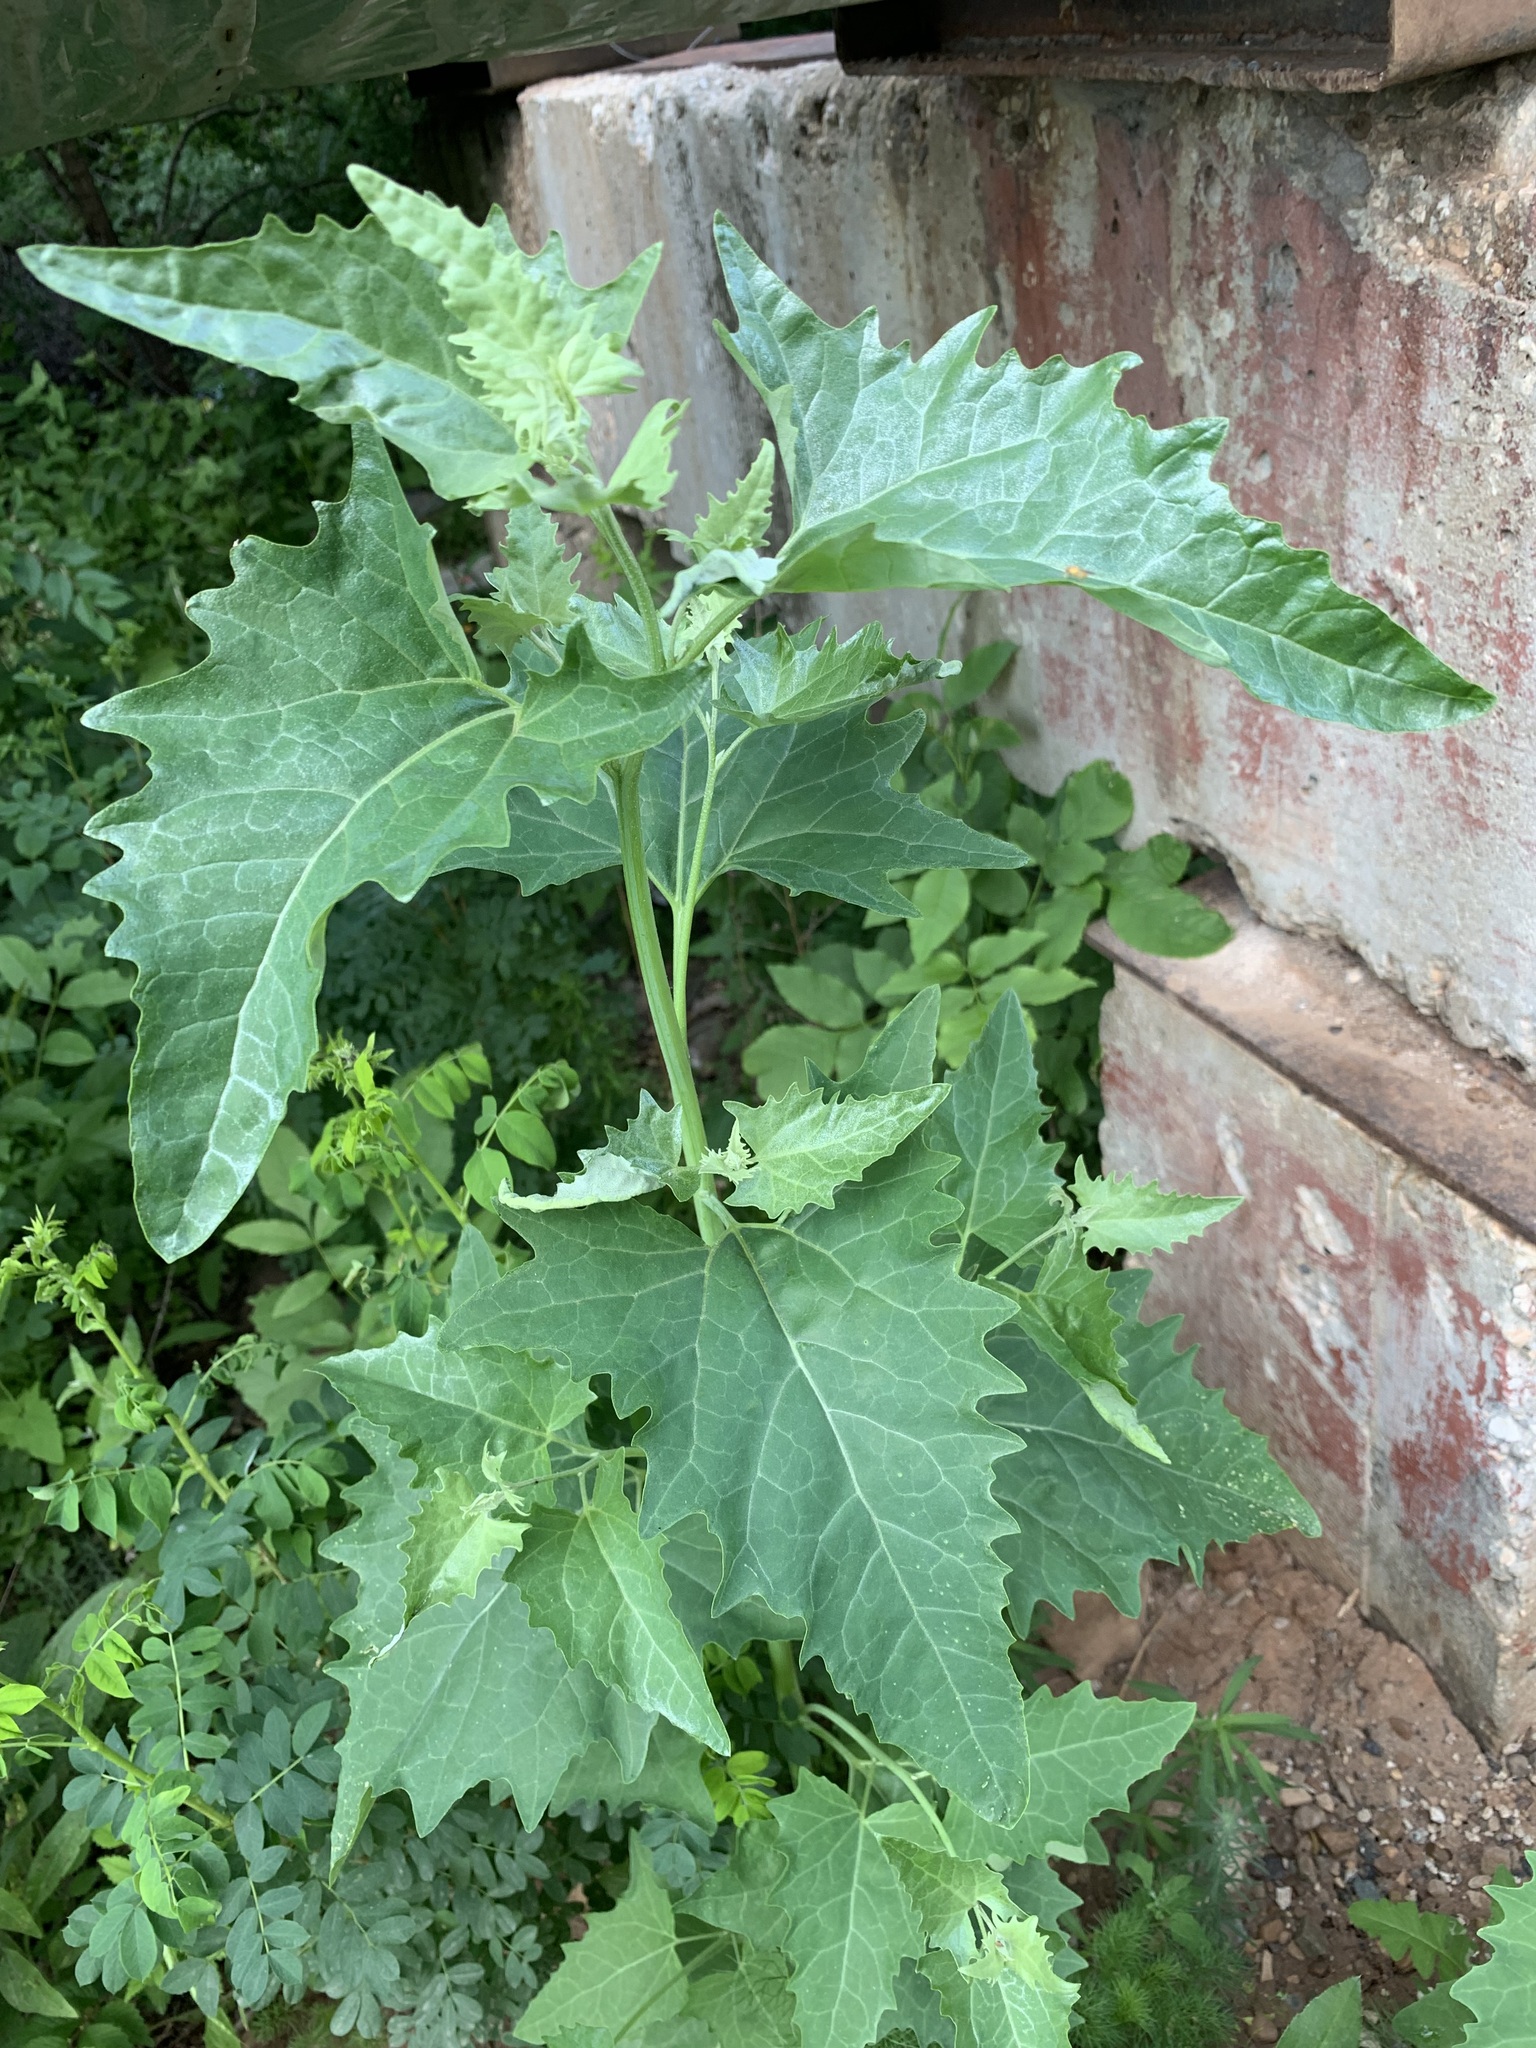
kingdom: Plantae
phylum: Tracheophyta
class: Magnoliopsida
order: Caryophyllales
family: Amaranthaceae
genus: Atriplex
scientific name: Atriplex sagittata
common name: Purple orache
